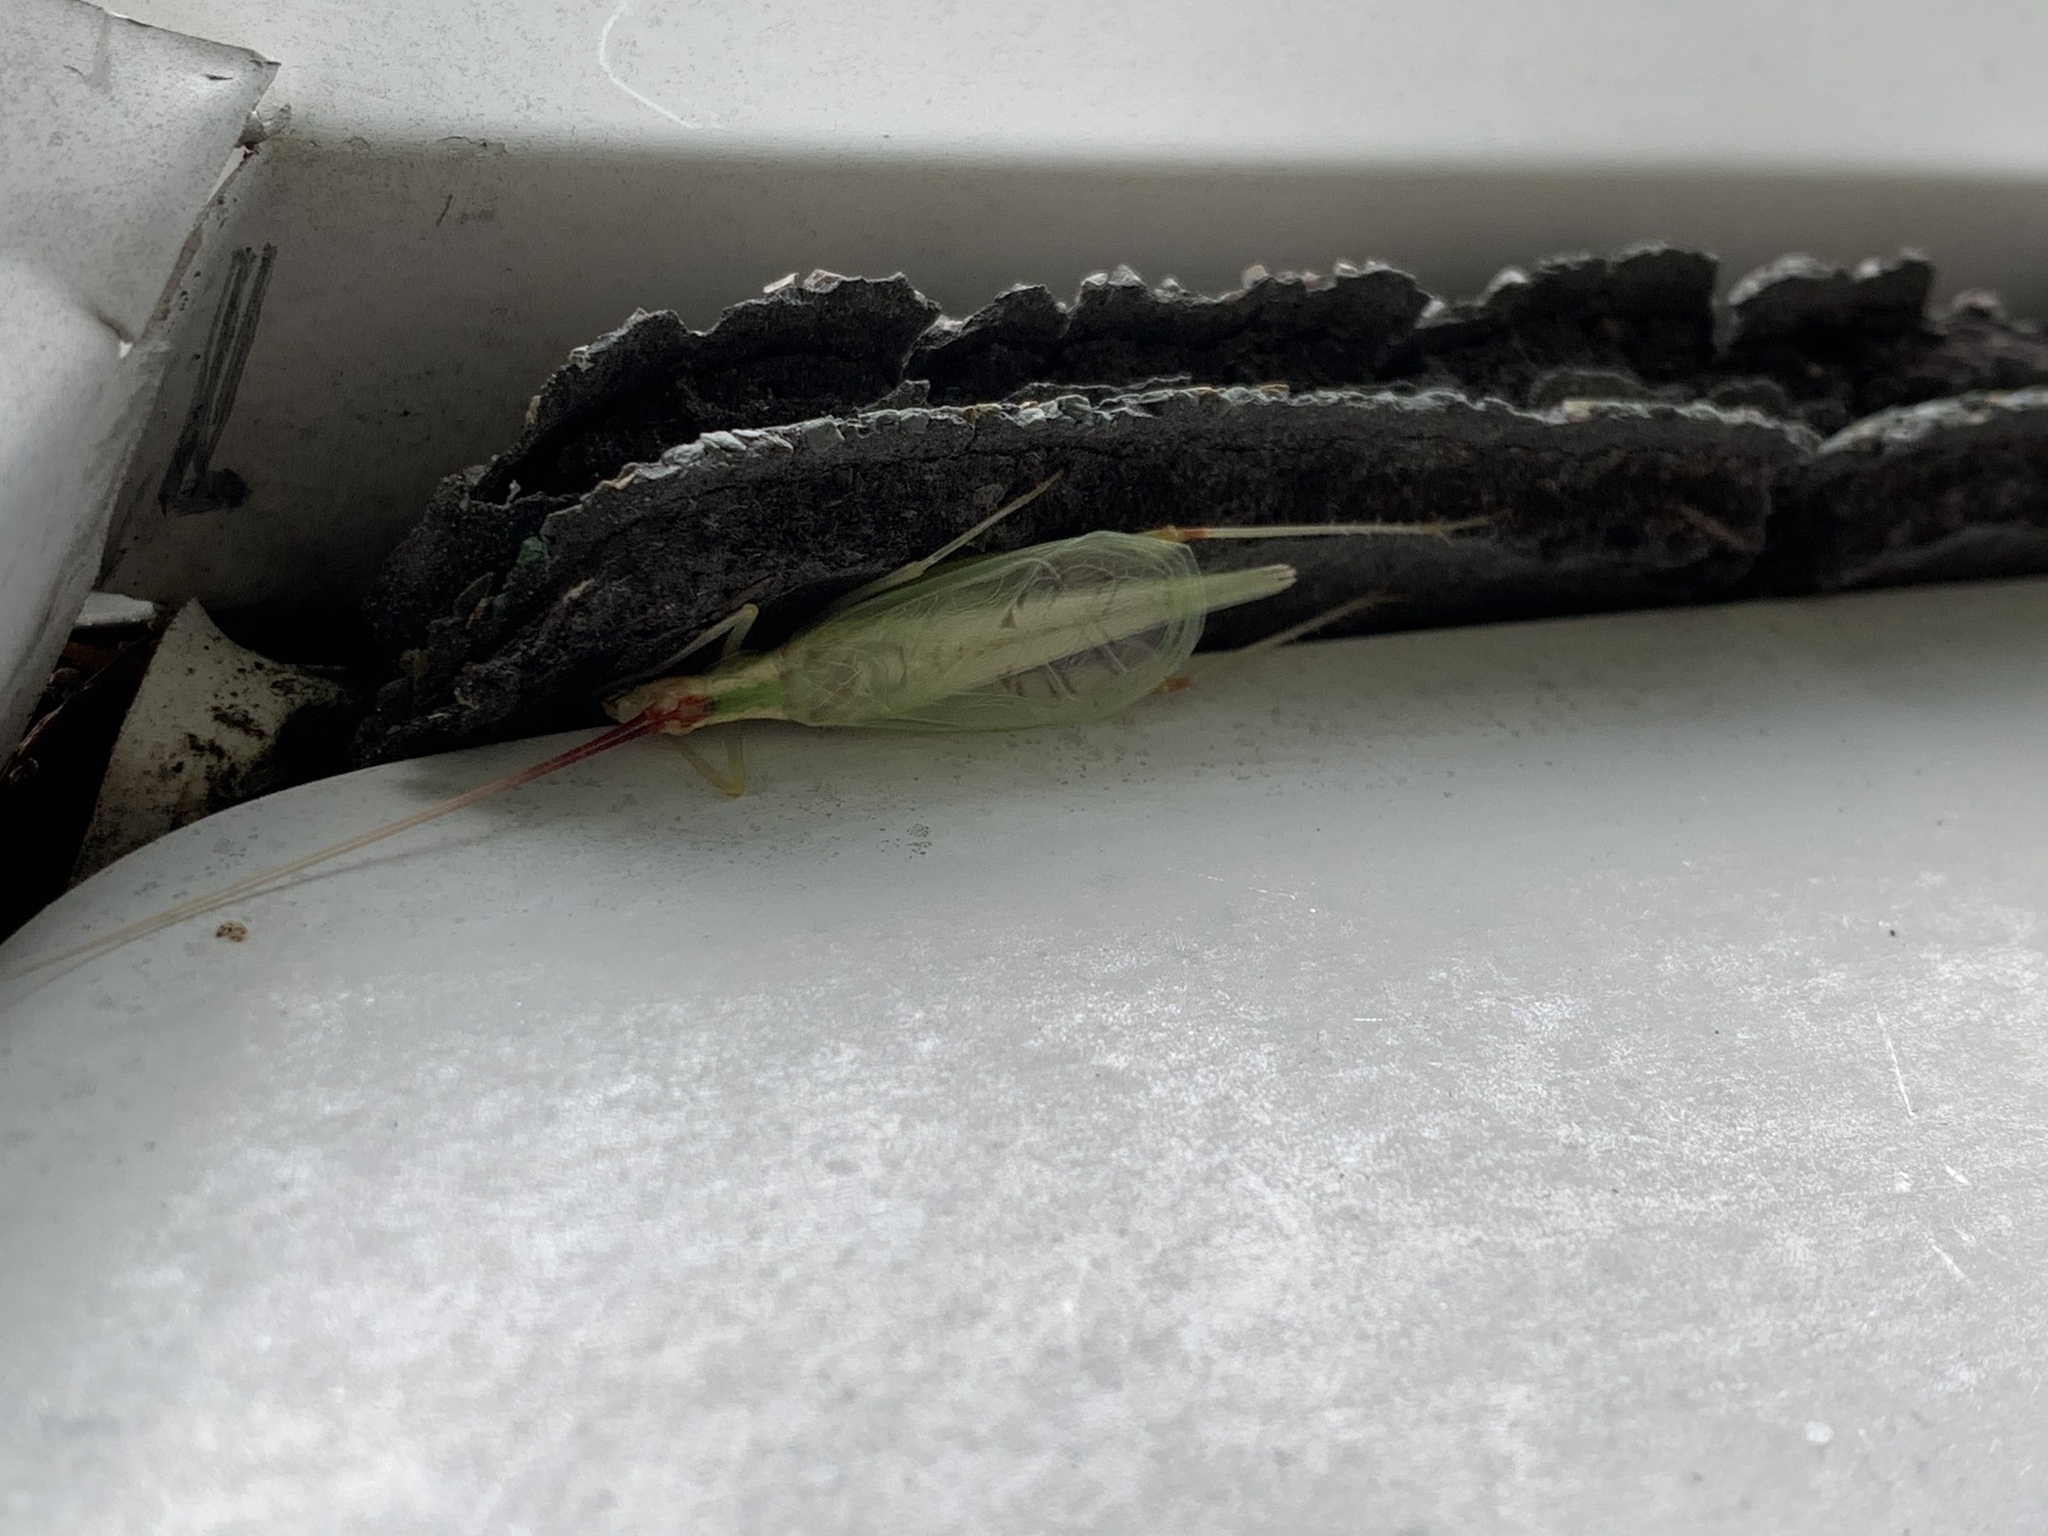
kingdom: Animalia
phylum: Arthropoda
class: Insecta
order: Orthoptera
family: Gryllidae
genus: Oecanthus
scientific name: Oecanthus latipennis
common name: Broad-winged tree cricket
